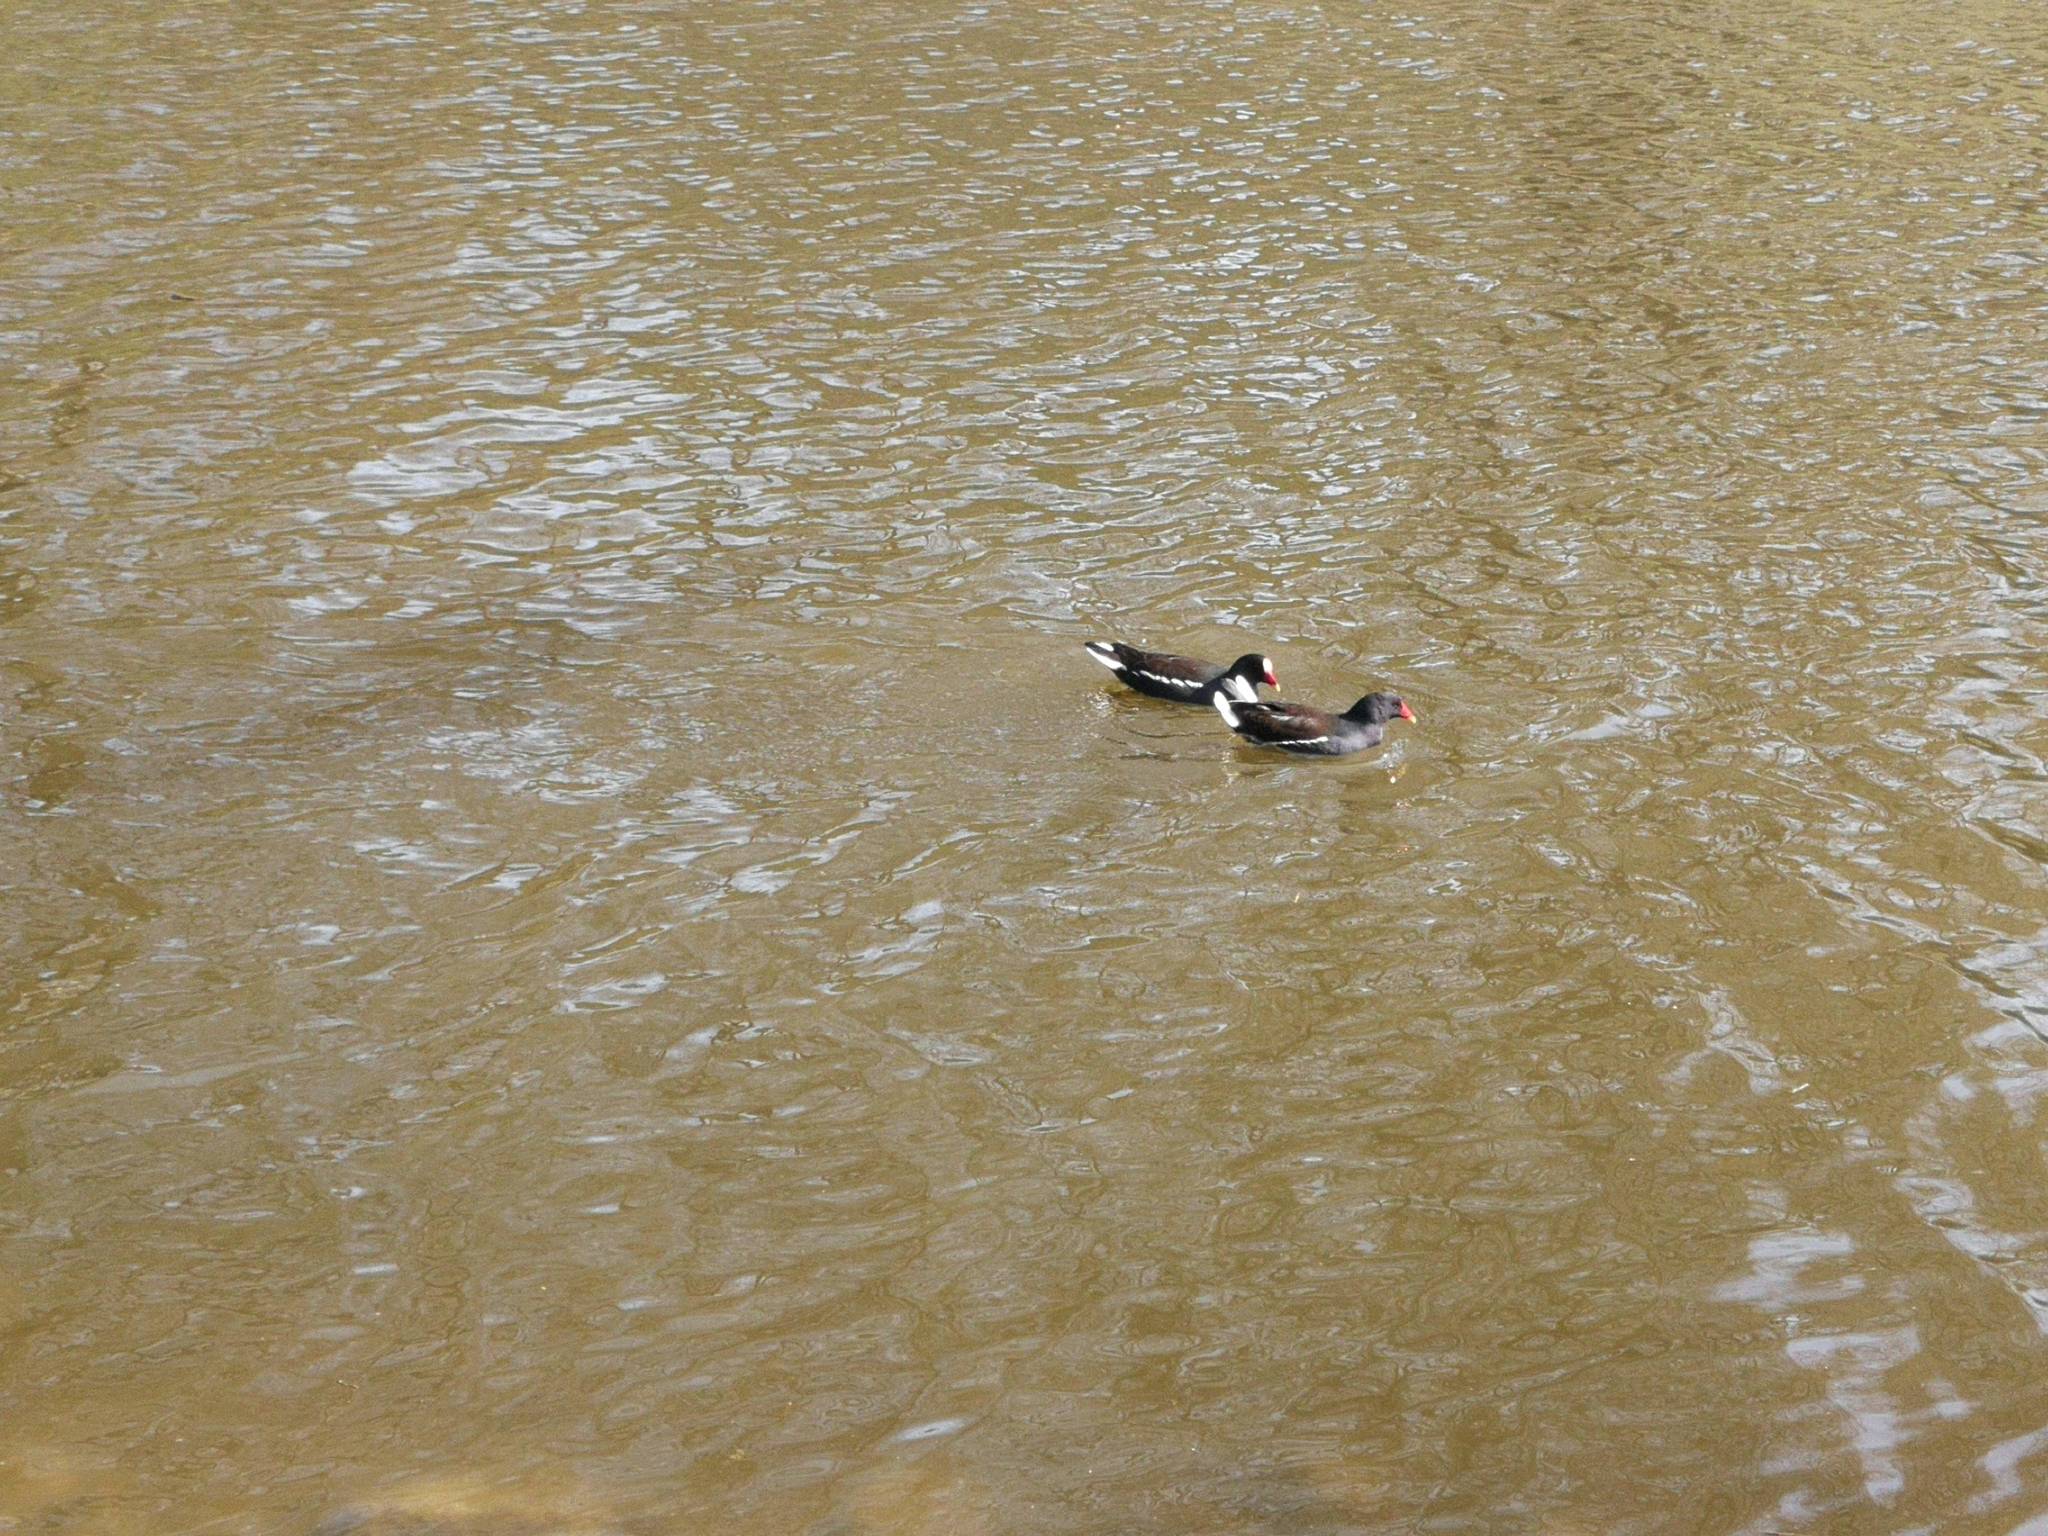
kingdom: Animalia
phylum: Chordata
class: Aves
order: Gruiformes
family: Rallidae
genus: Gallinula
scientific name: Gallinula chloropus
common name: Common moorhen
